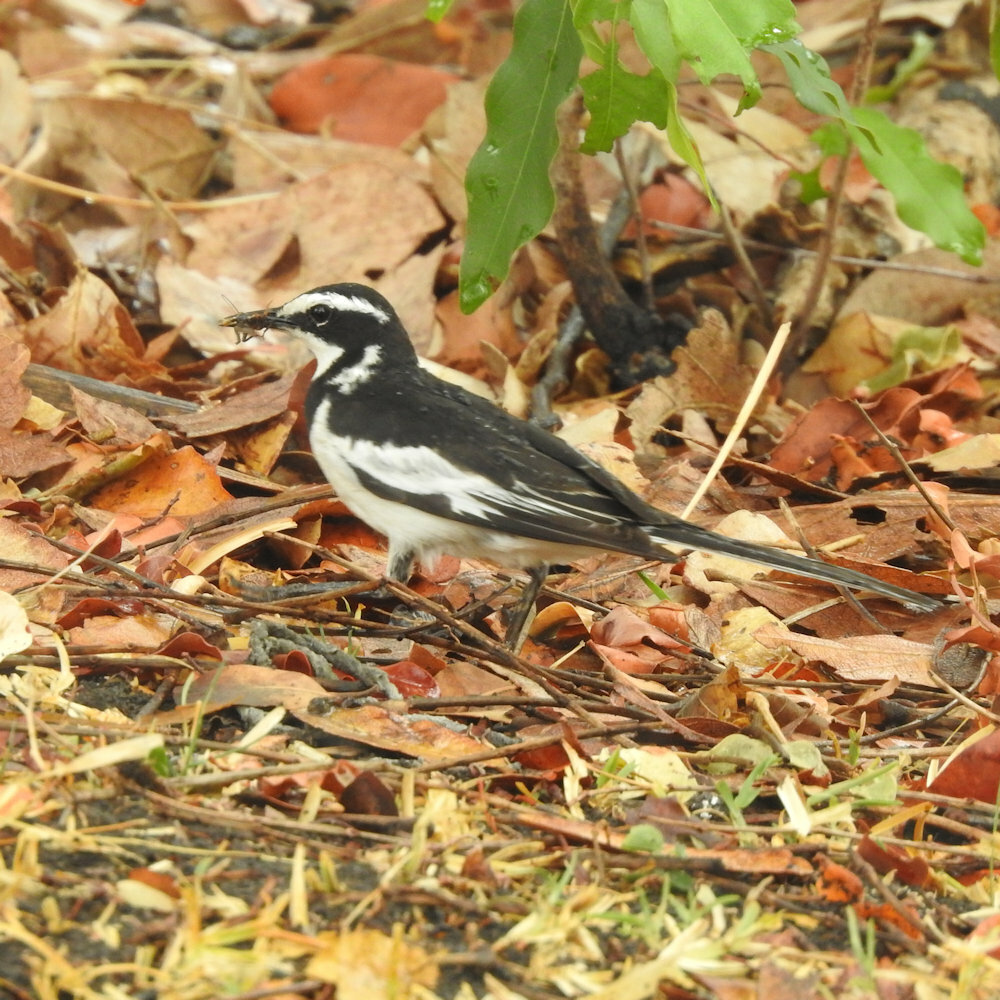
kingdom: Animalia
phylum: Chordata
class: Aves
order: Passeriformes
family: Motacillidae
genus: Motacilla
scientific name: Motacilla aguimp
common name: African pied wagtail
